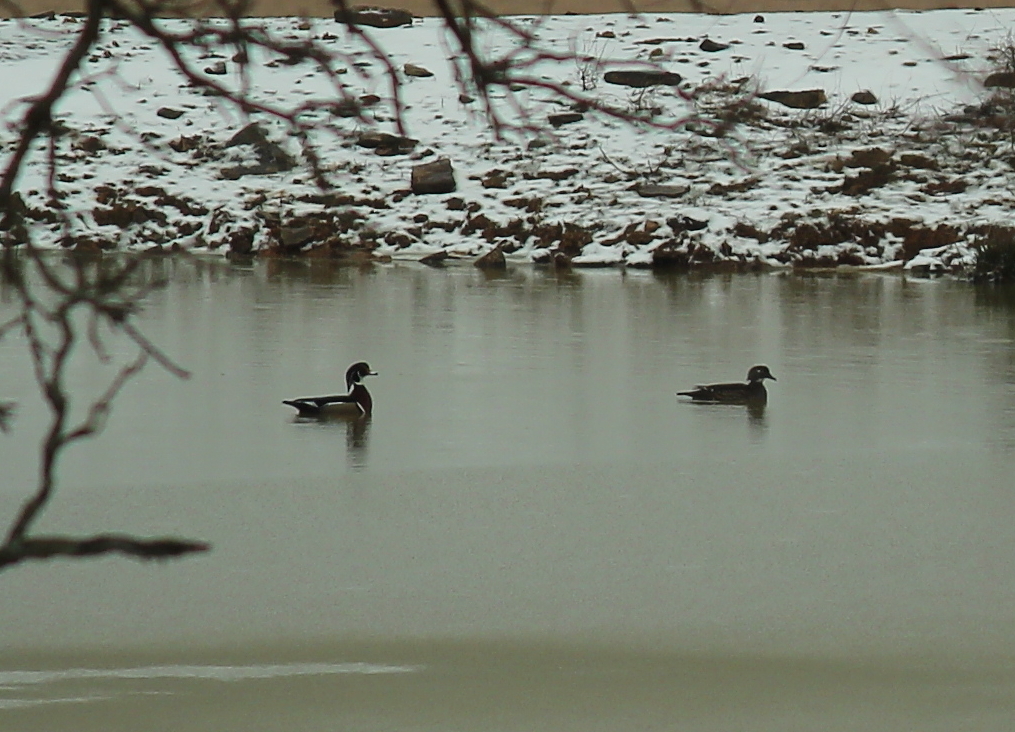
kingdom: Animalia
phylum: Chordata
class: Aves
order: Anseriformes
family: Anatidae
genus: Aix
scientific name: Aix sponsa
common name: Wood duck
